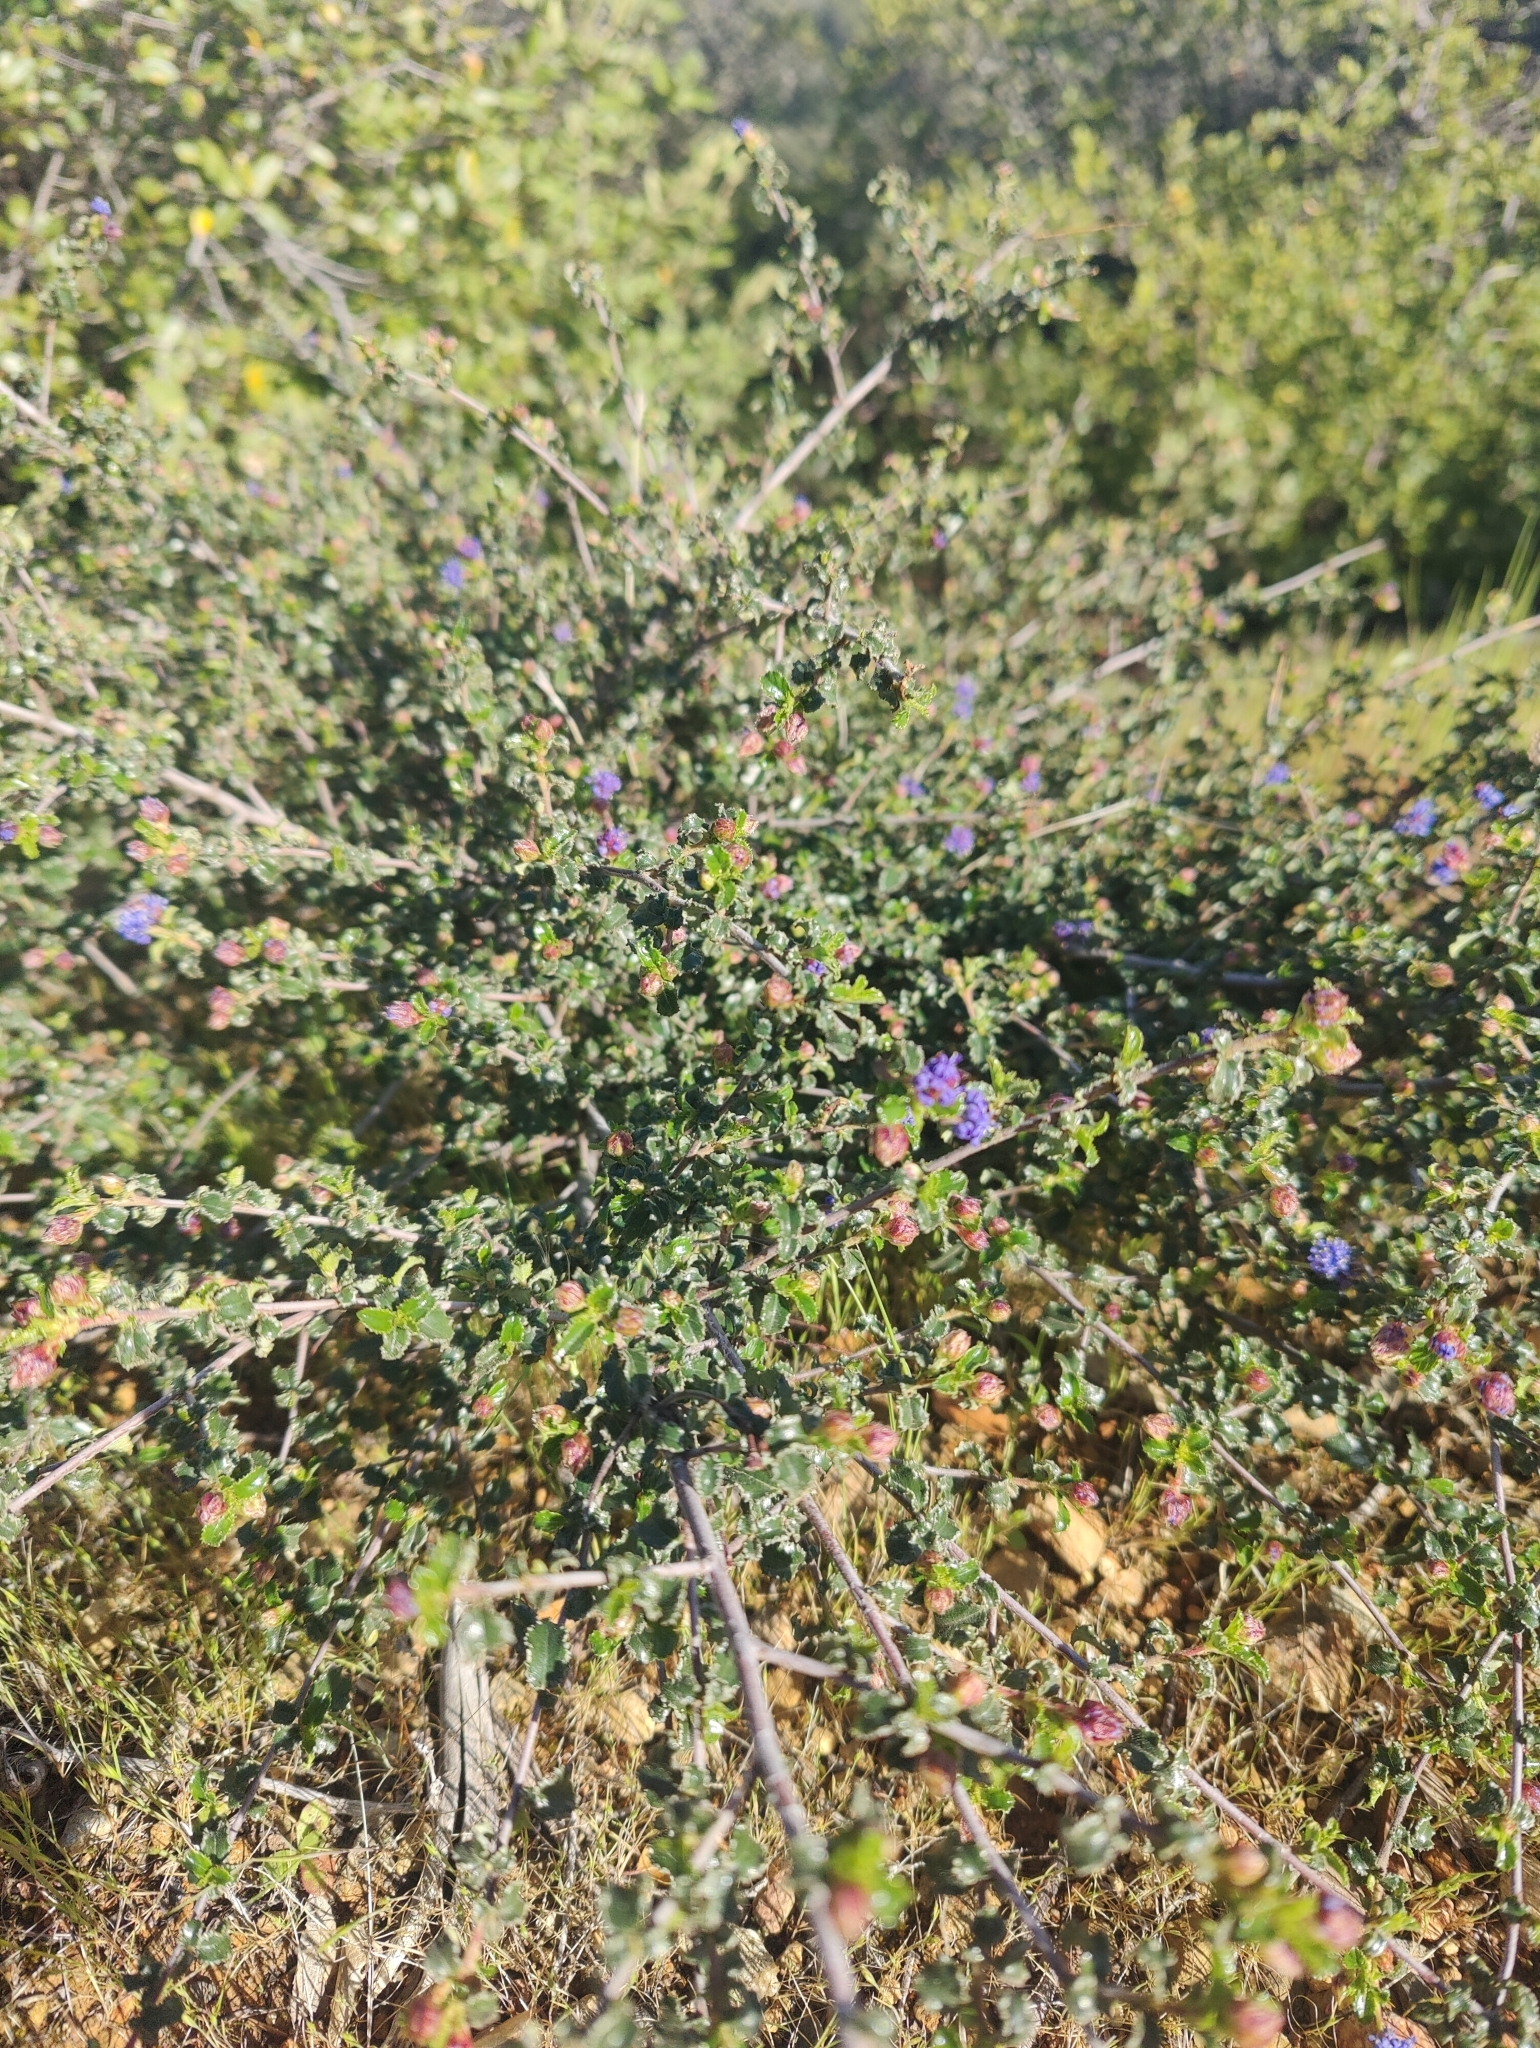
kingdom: Plantae
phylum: Tracheophyta
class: Magnoliopsida
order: Rosales
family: Rhamnaceae
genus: Ceanothus
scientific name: Ceanothus foliosus
